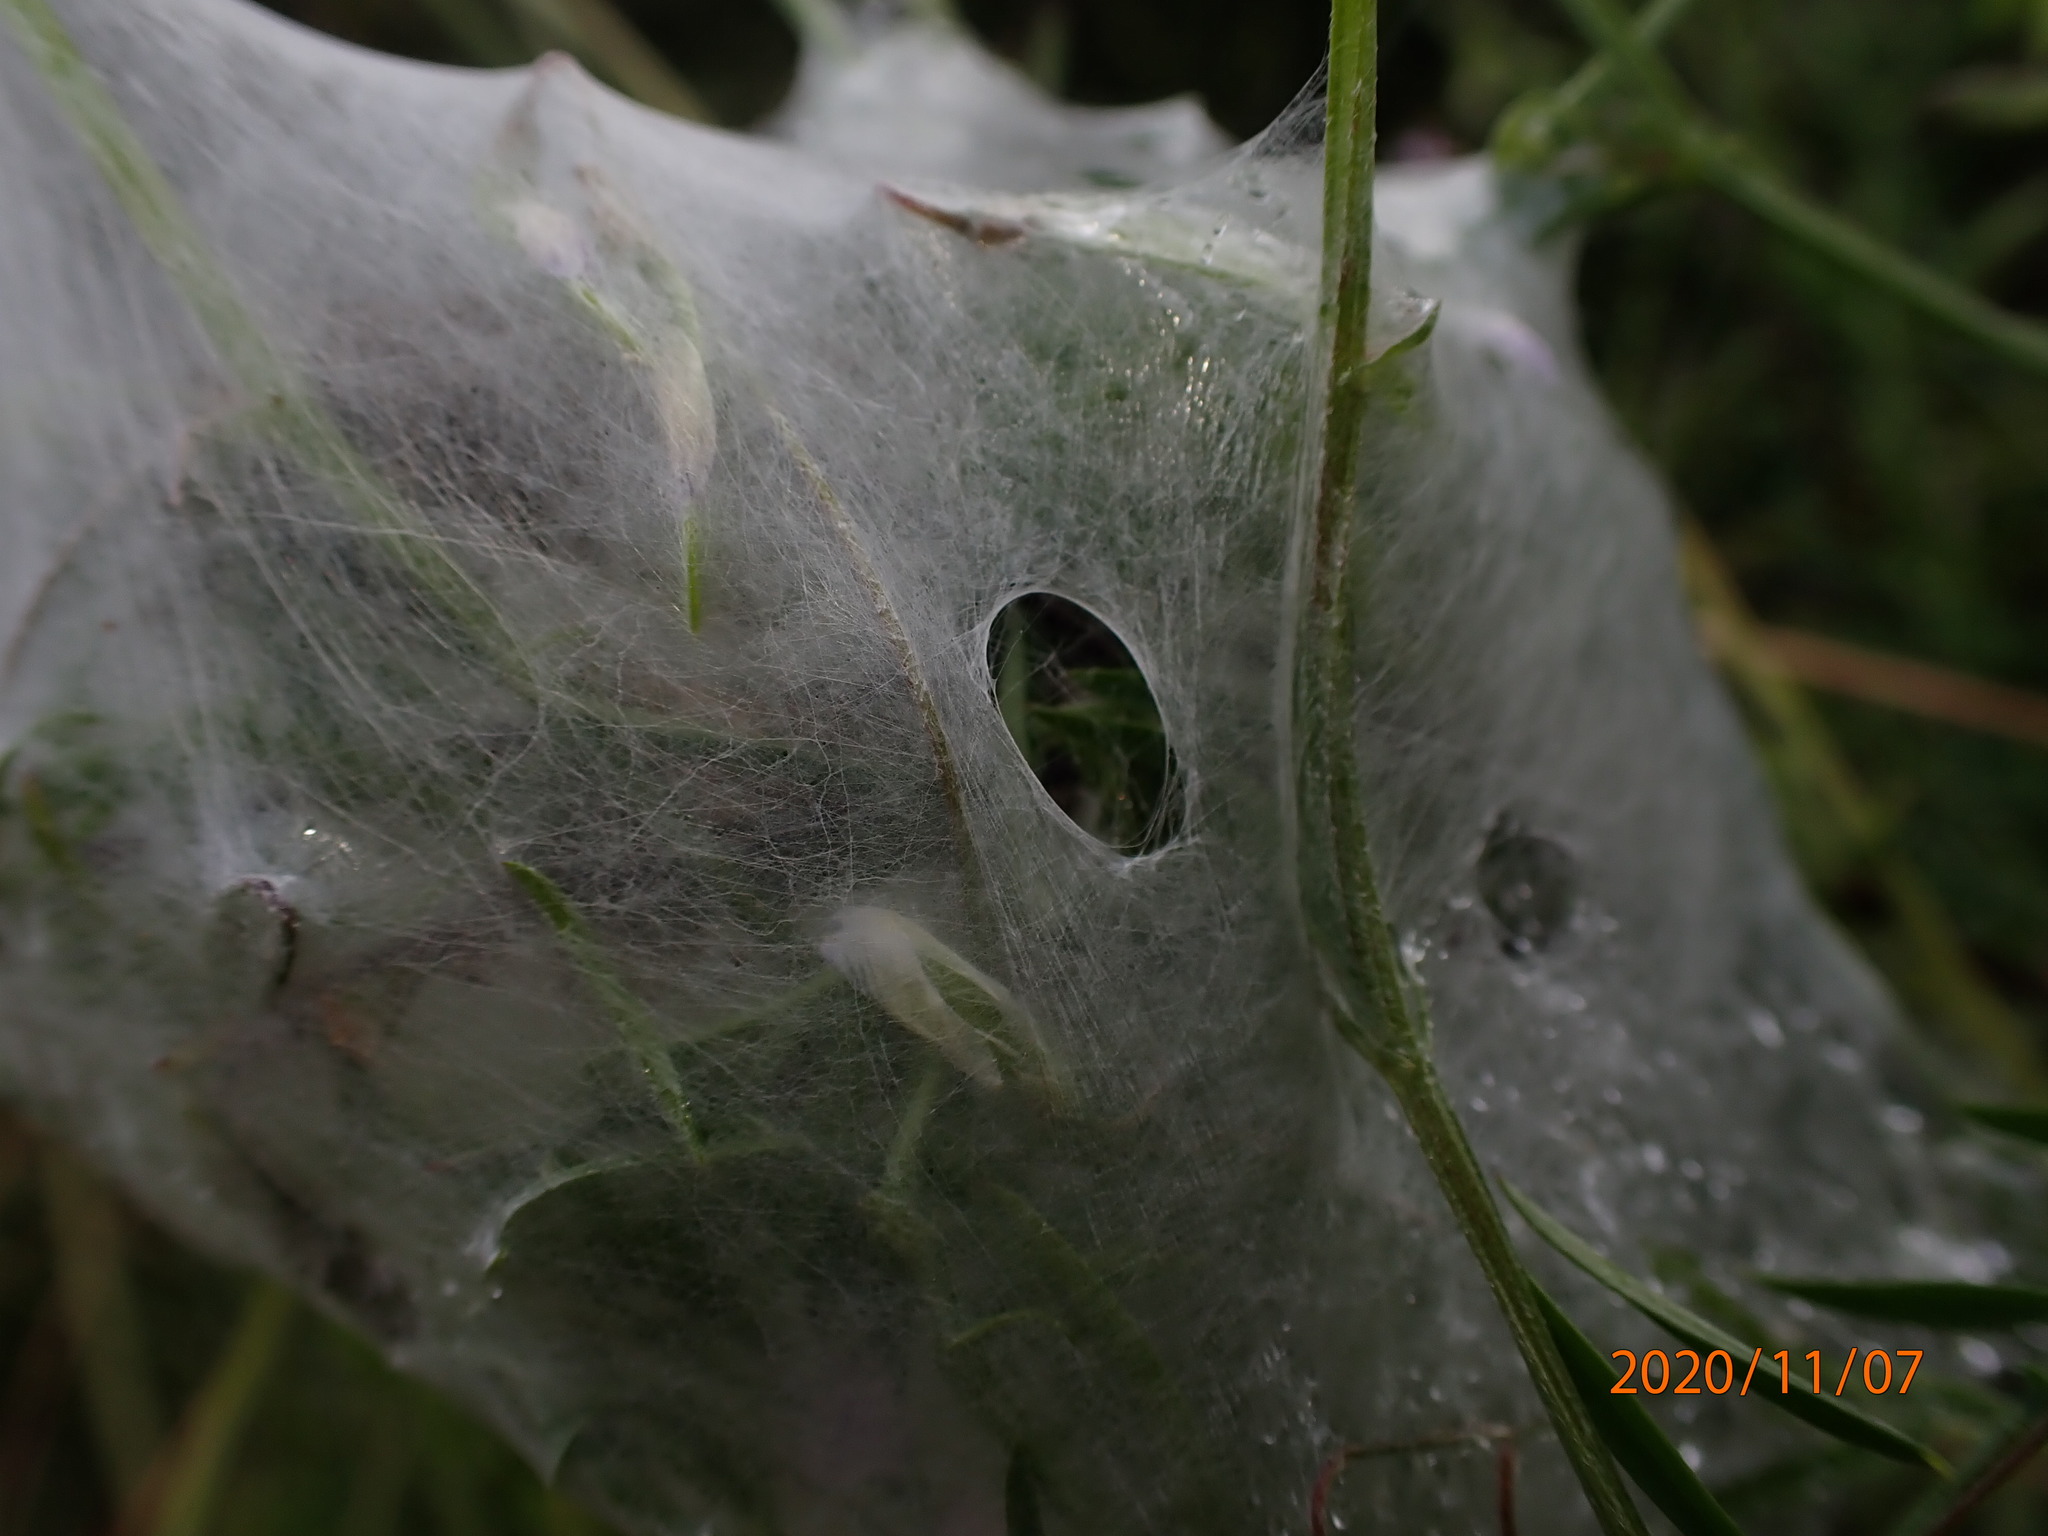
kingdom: Animalia
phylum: Arthropoda
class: Arachnida
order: Araneae
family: Pisauridae
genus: Dolomedes
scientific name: Dolomedes
